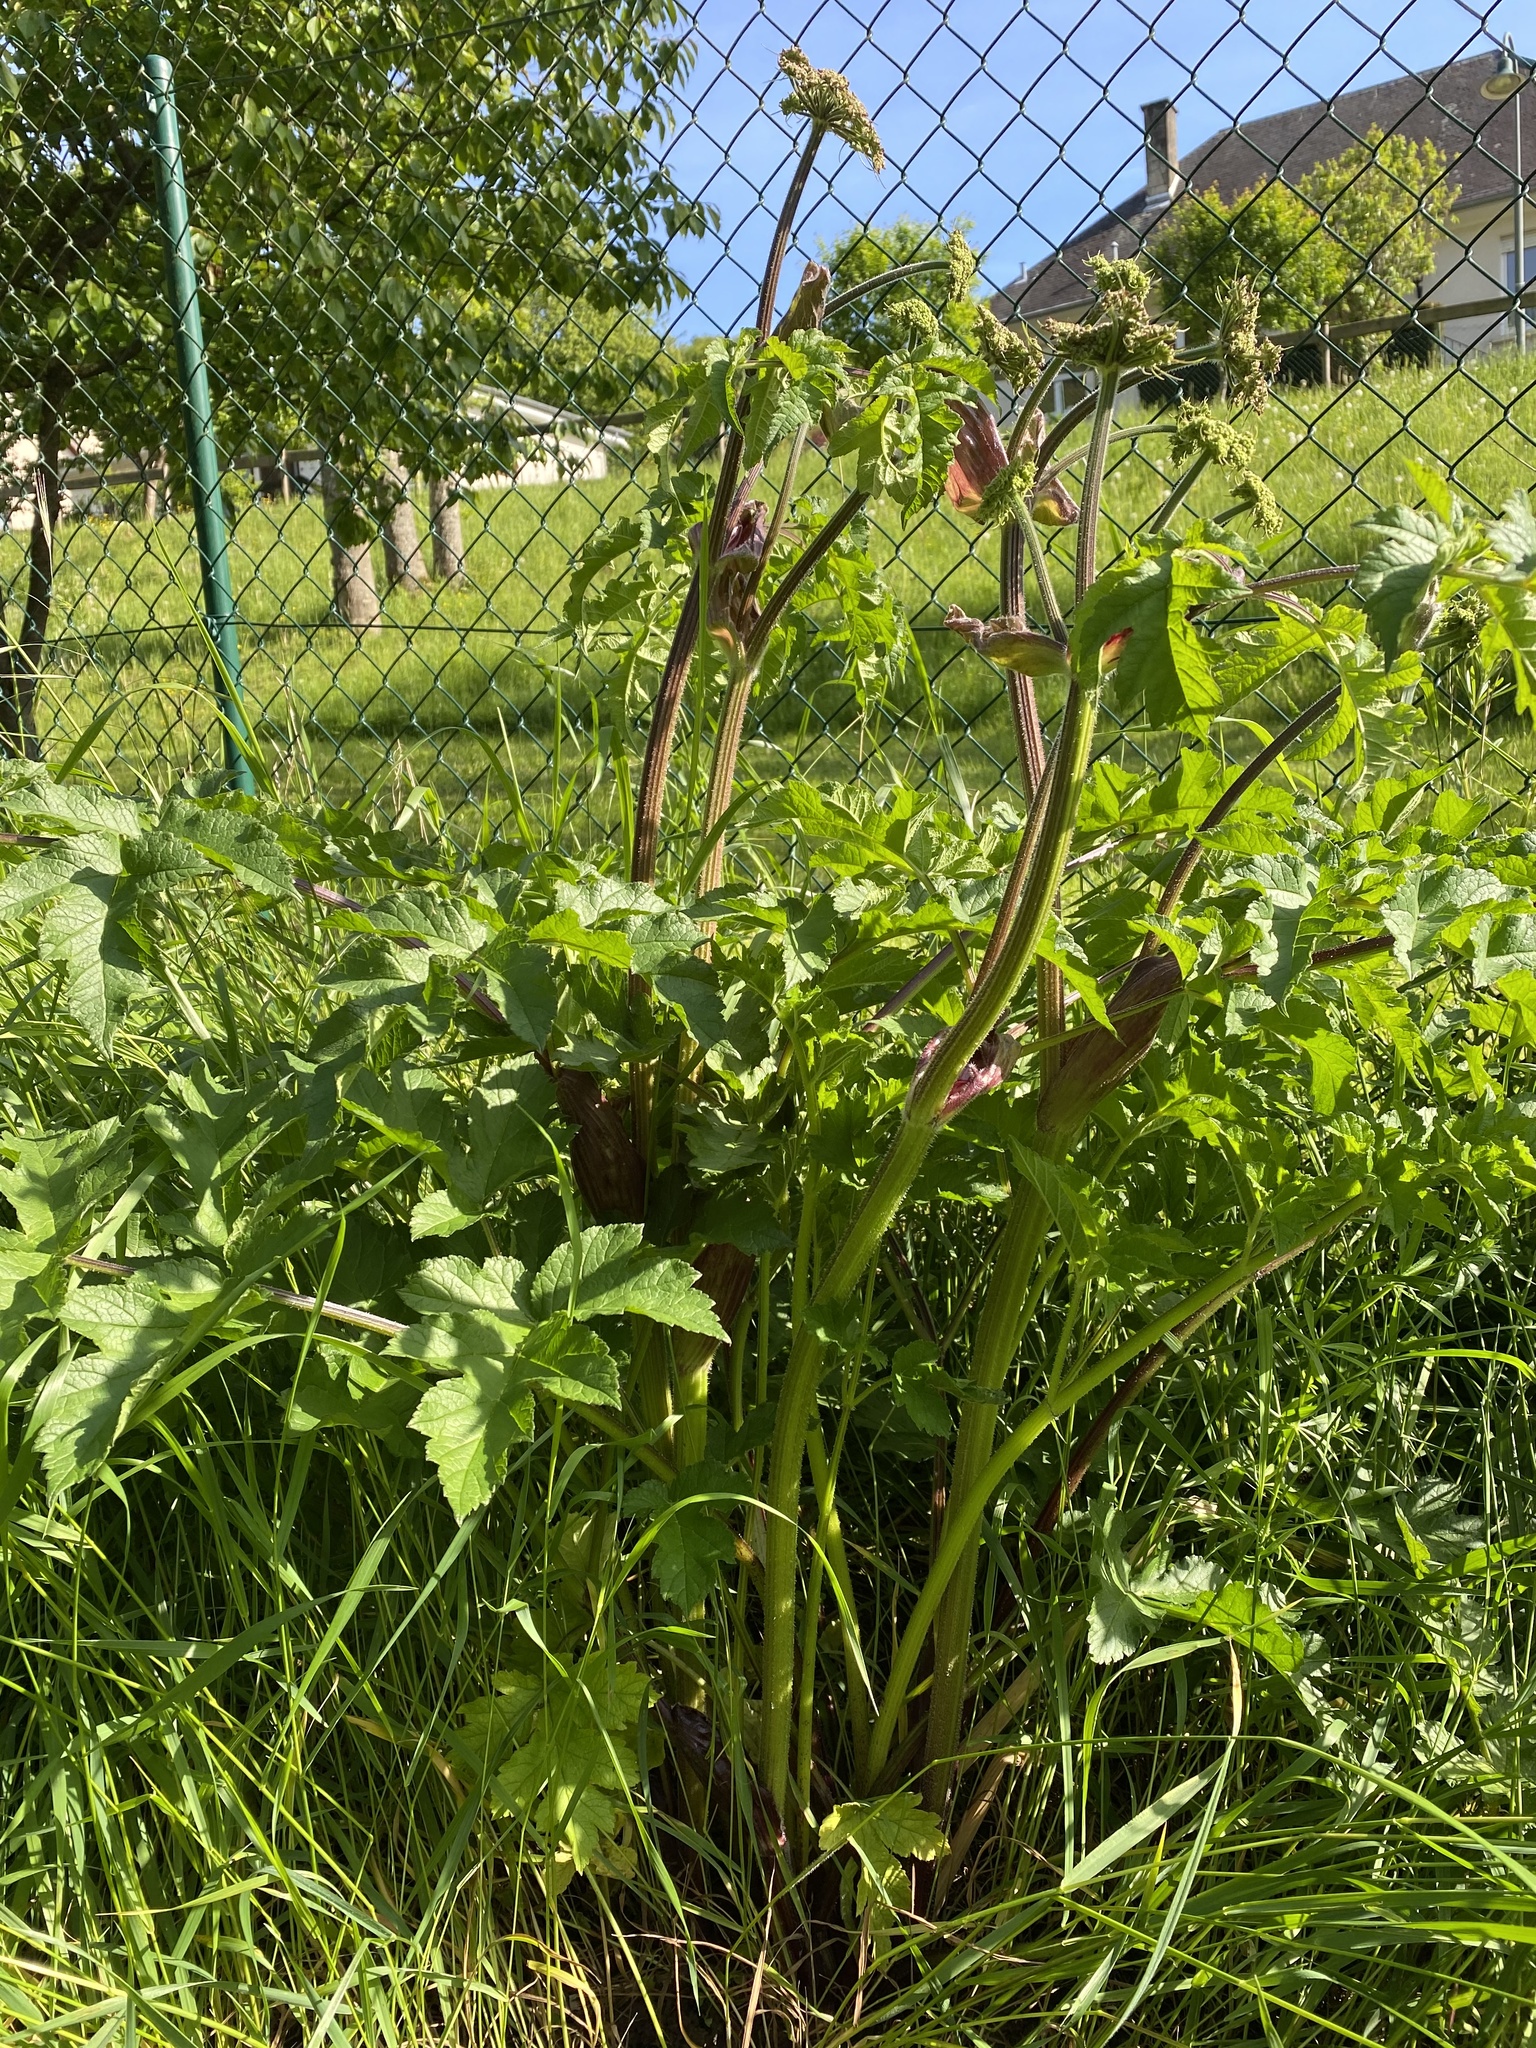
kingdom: Plantae
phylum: Tracheophyta
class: Magnoliopsida
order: Apiales
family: Apiaceae
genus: Heracleum
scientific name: Heracleum sphondylium
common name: Hogweed
